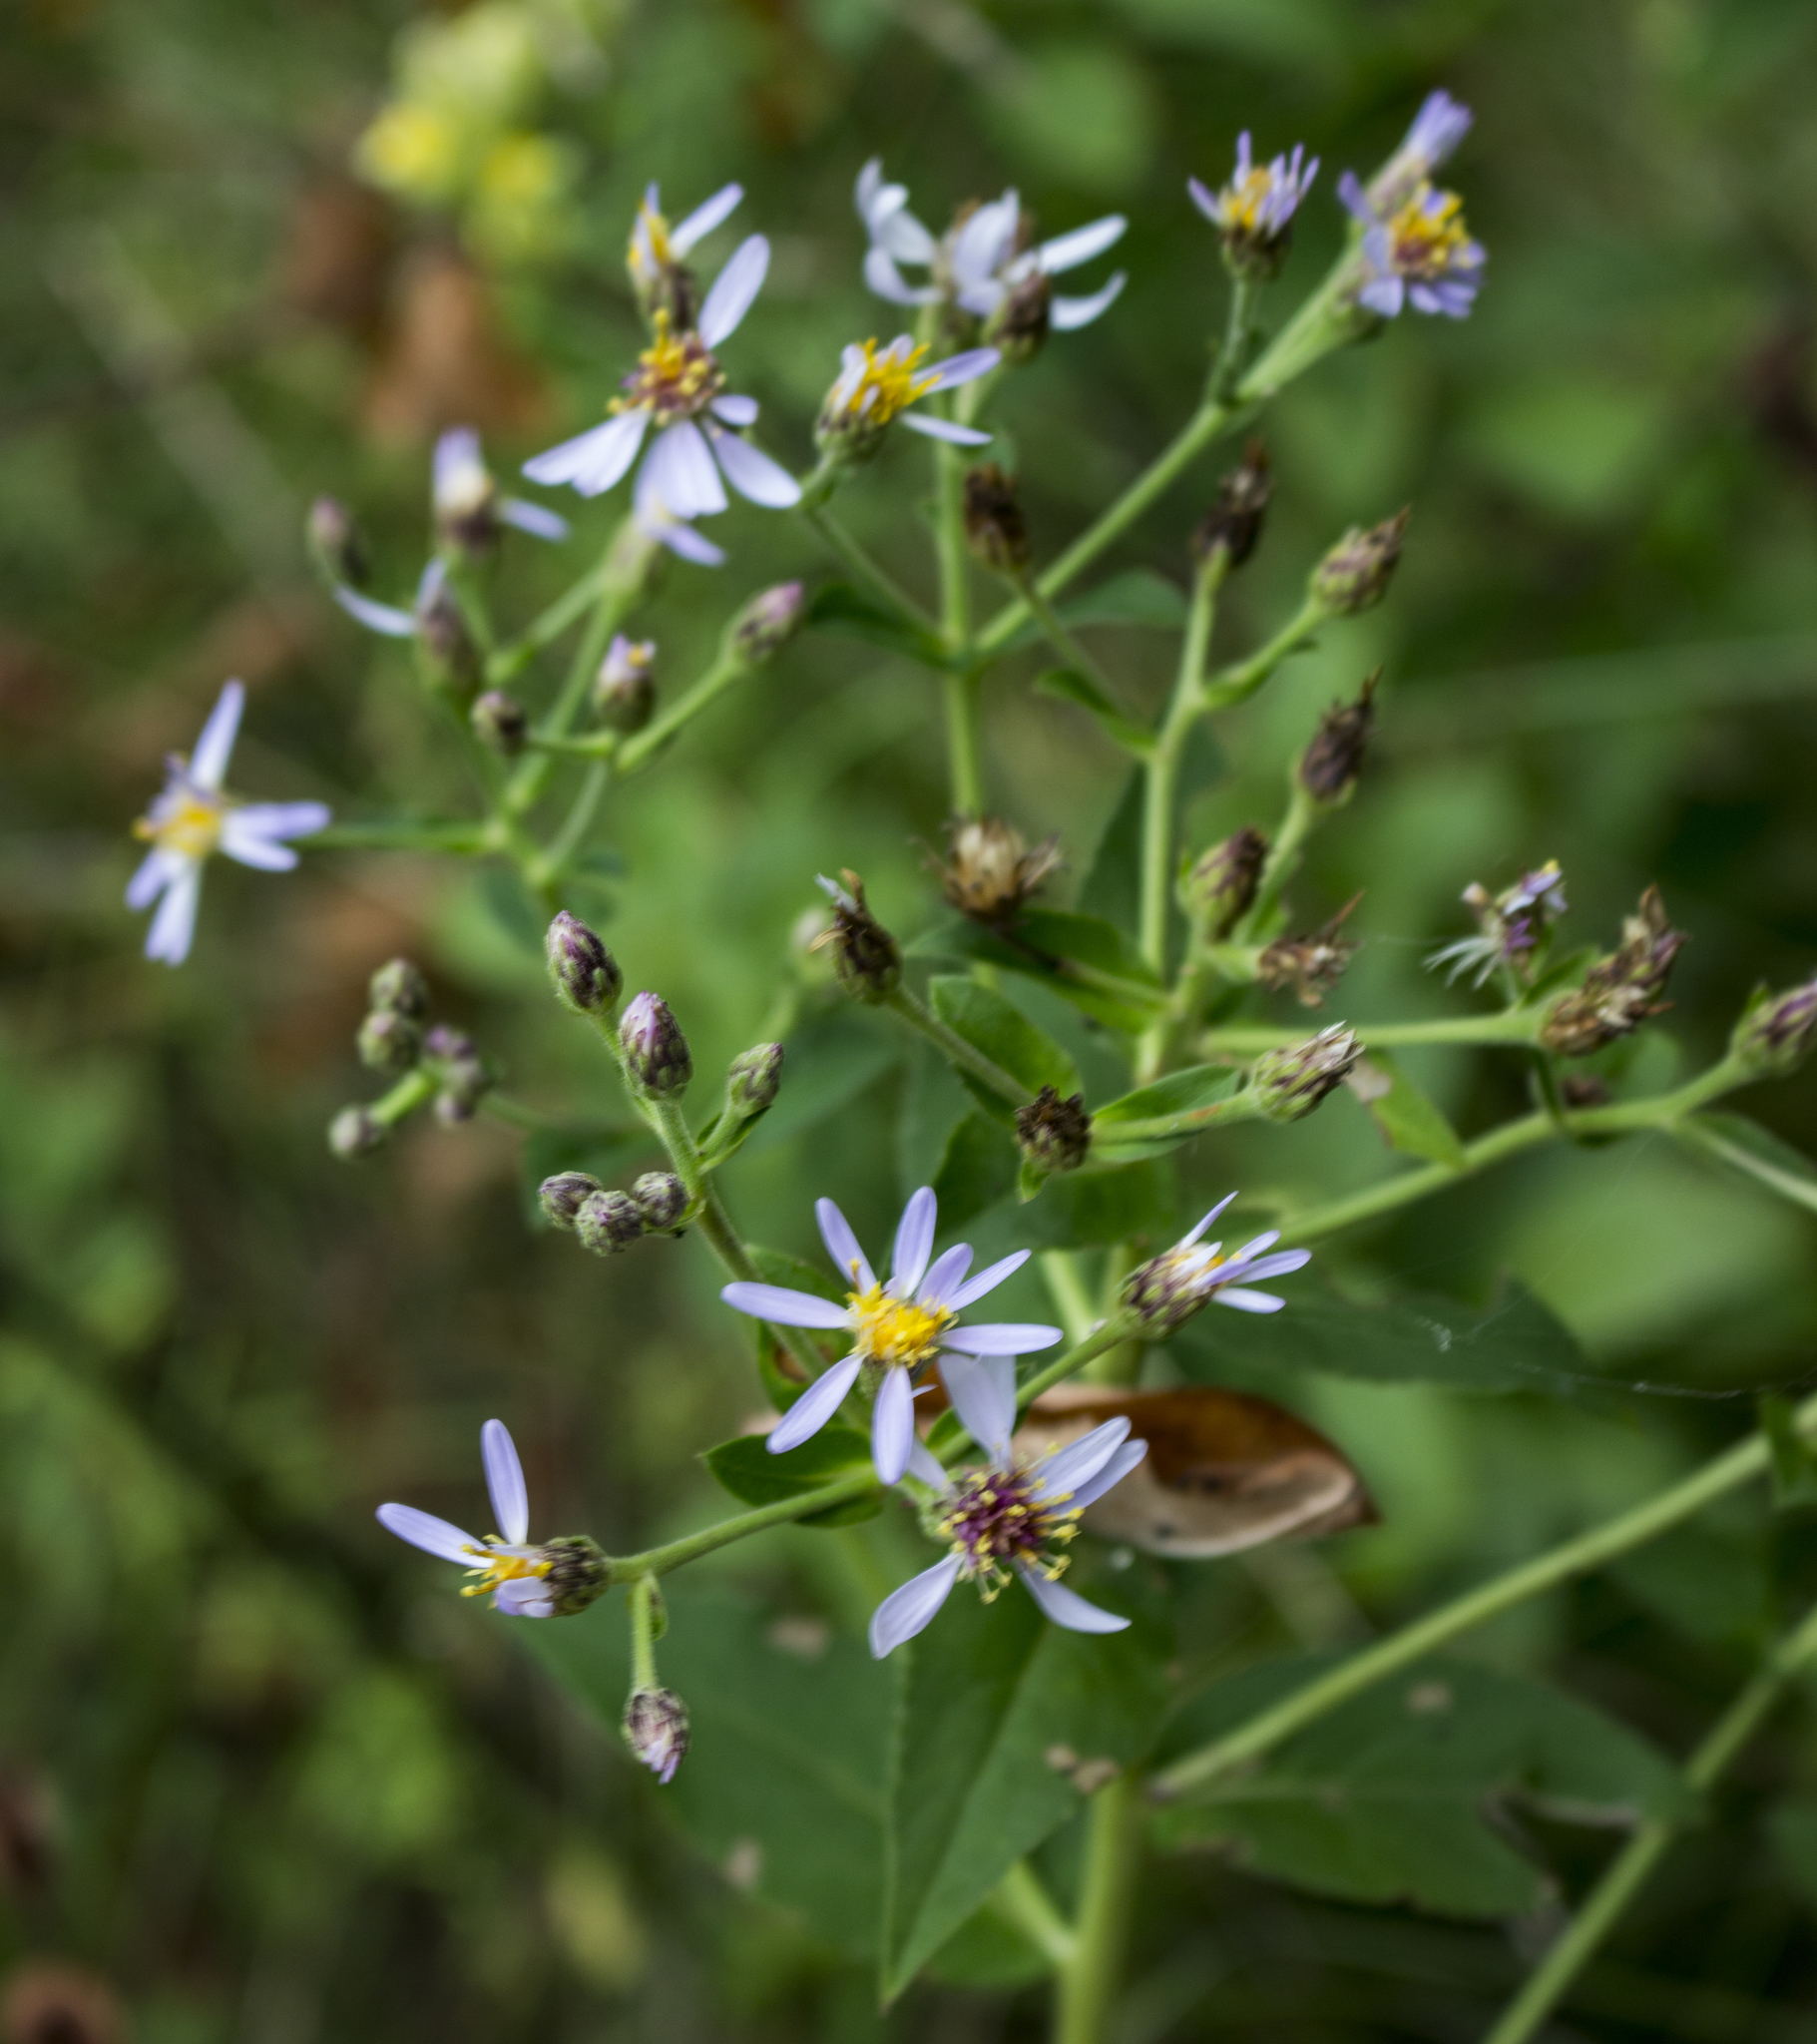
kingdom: Plantae
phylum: Tracheophyta
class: Magnoliopsida
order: Asterales
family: Asteraceae
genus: Eurybia
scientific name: Eurybia macrophylla
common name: Big-leaved aster
